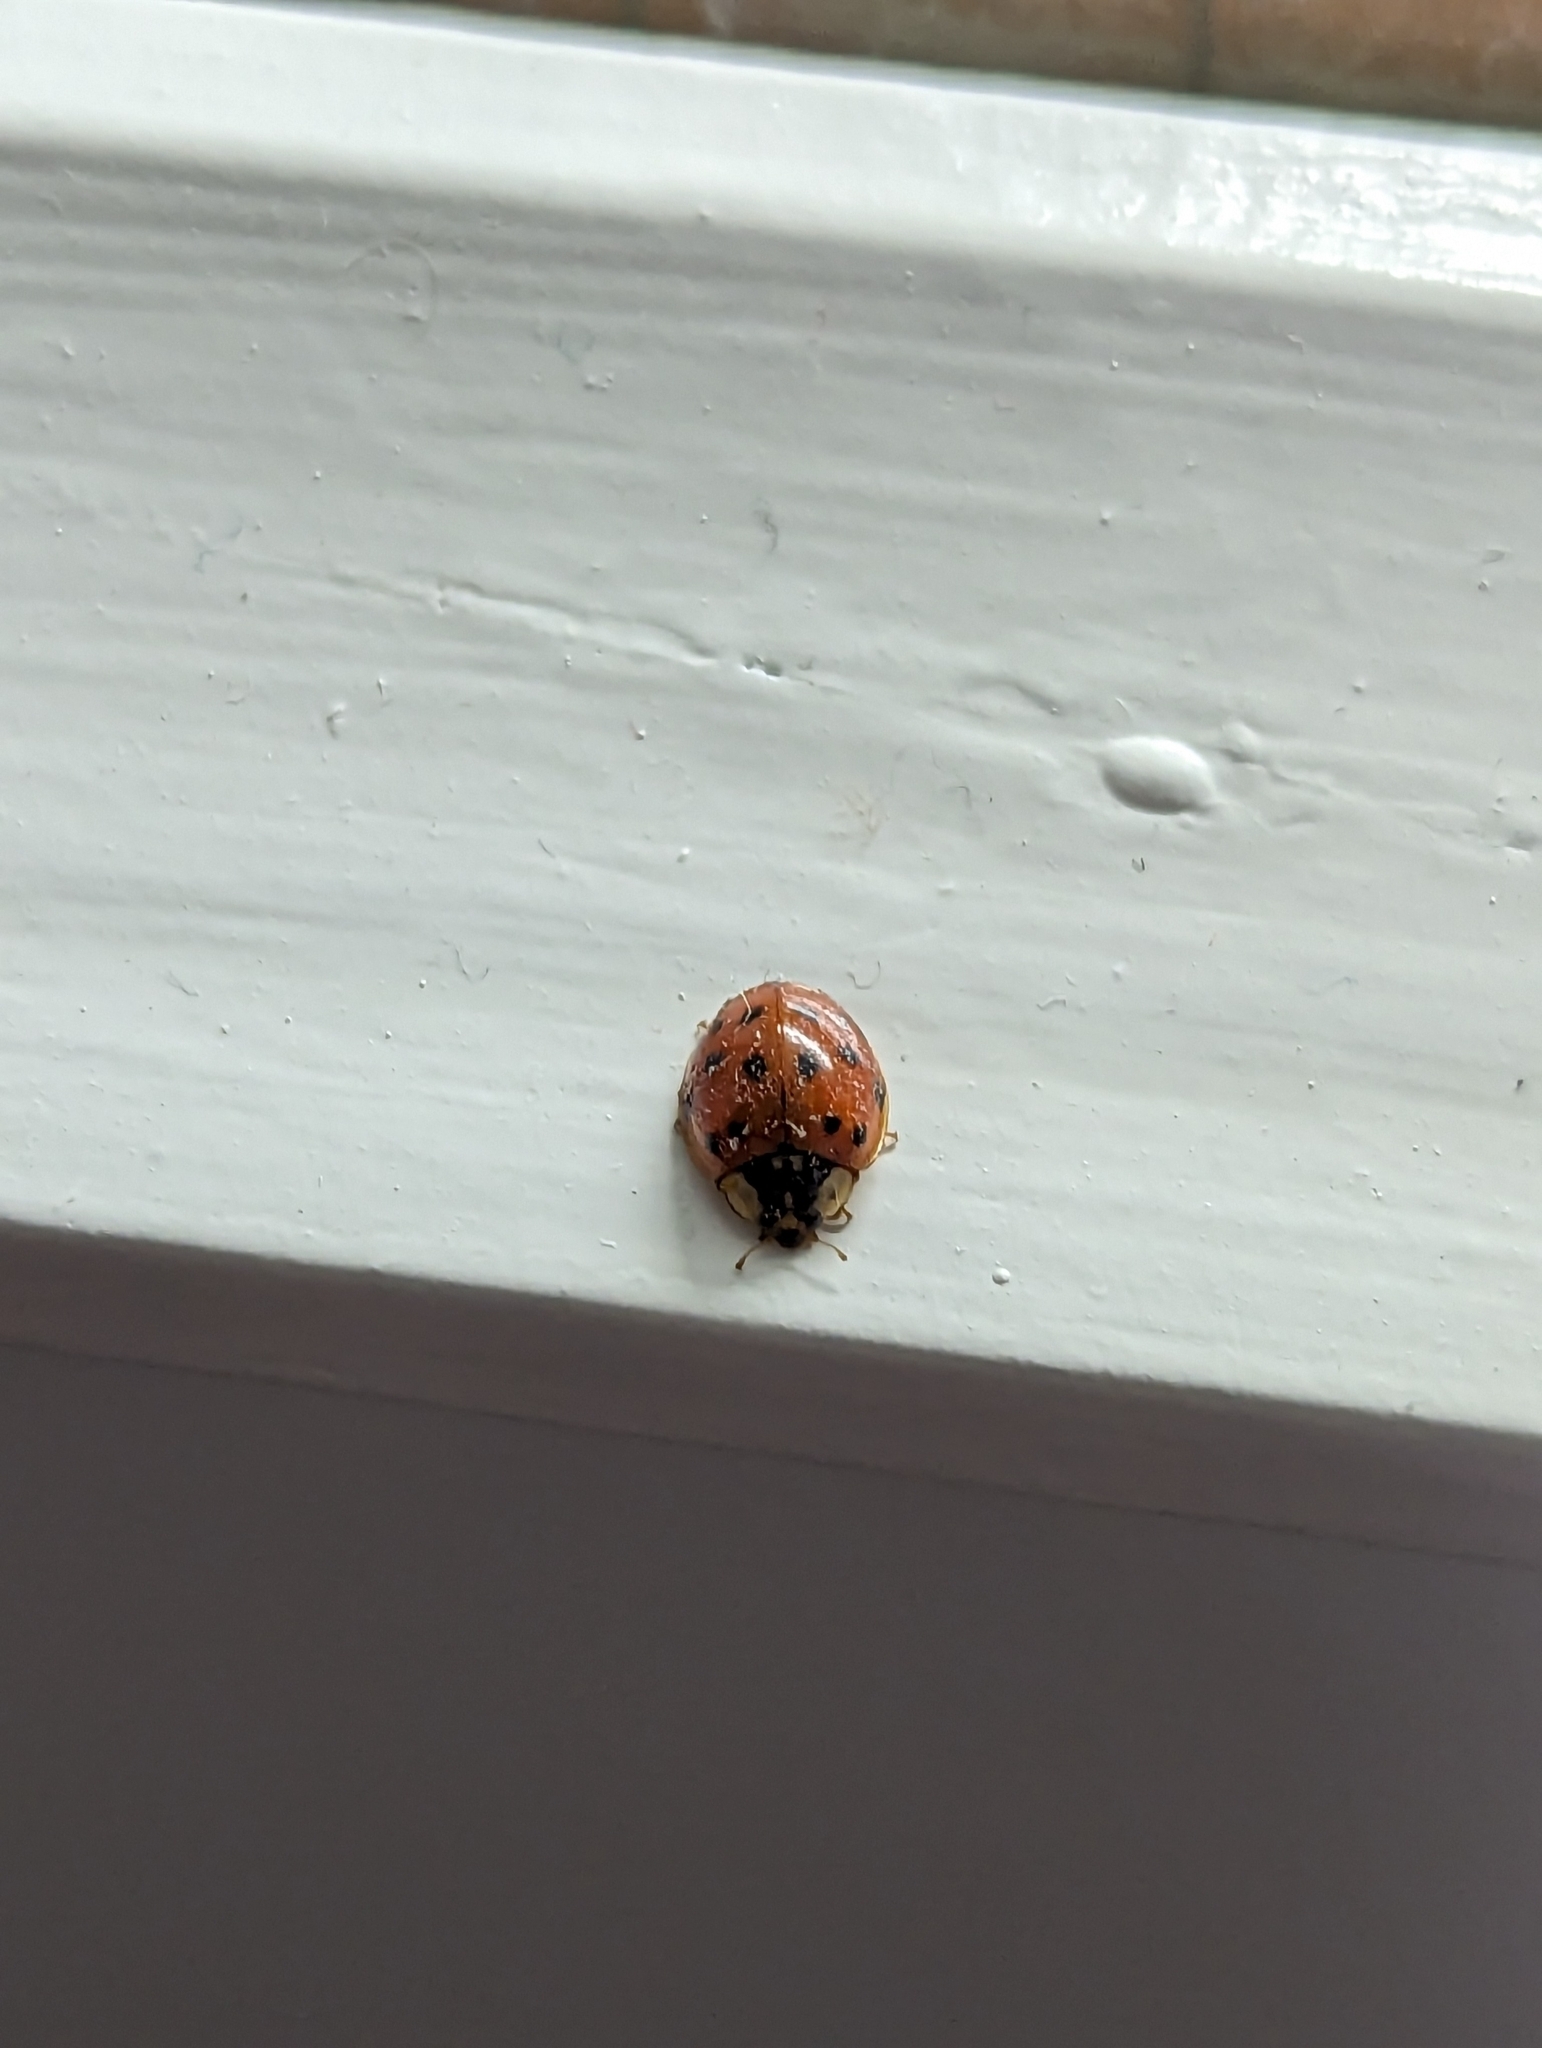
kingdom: Animalia
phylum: Arthropoda
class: Insecta
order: Coleoptera
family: Coccinellidae
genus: Harmonia
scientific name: Harmonia axyridis
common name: Harlequin ladybird
